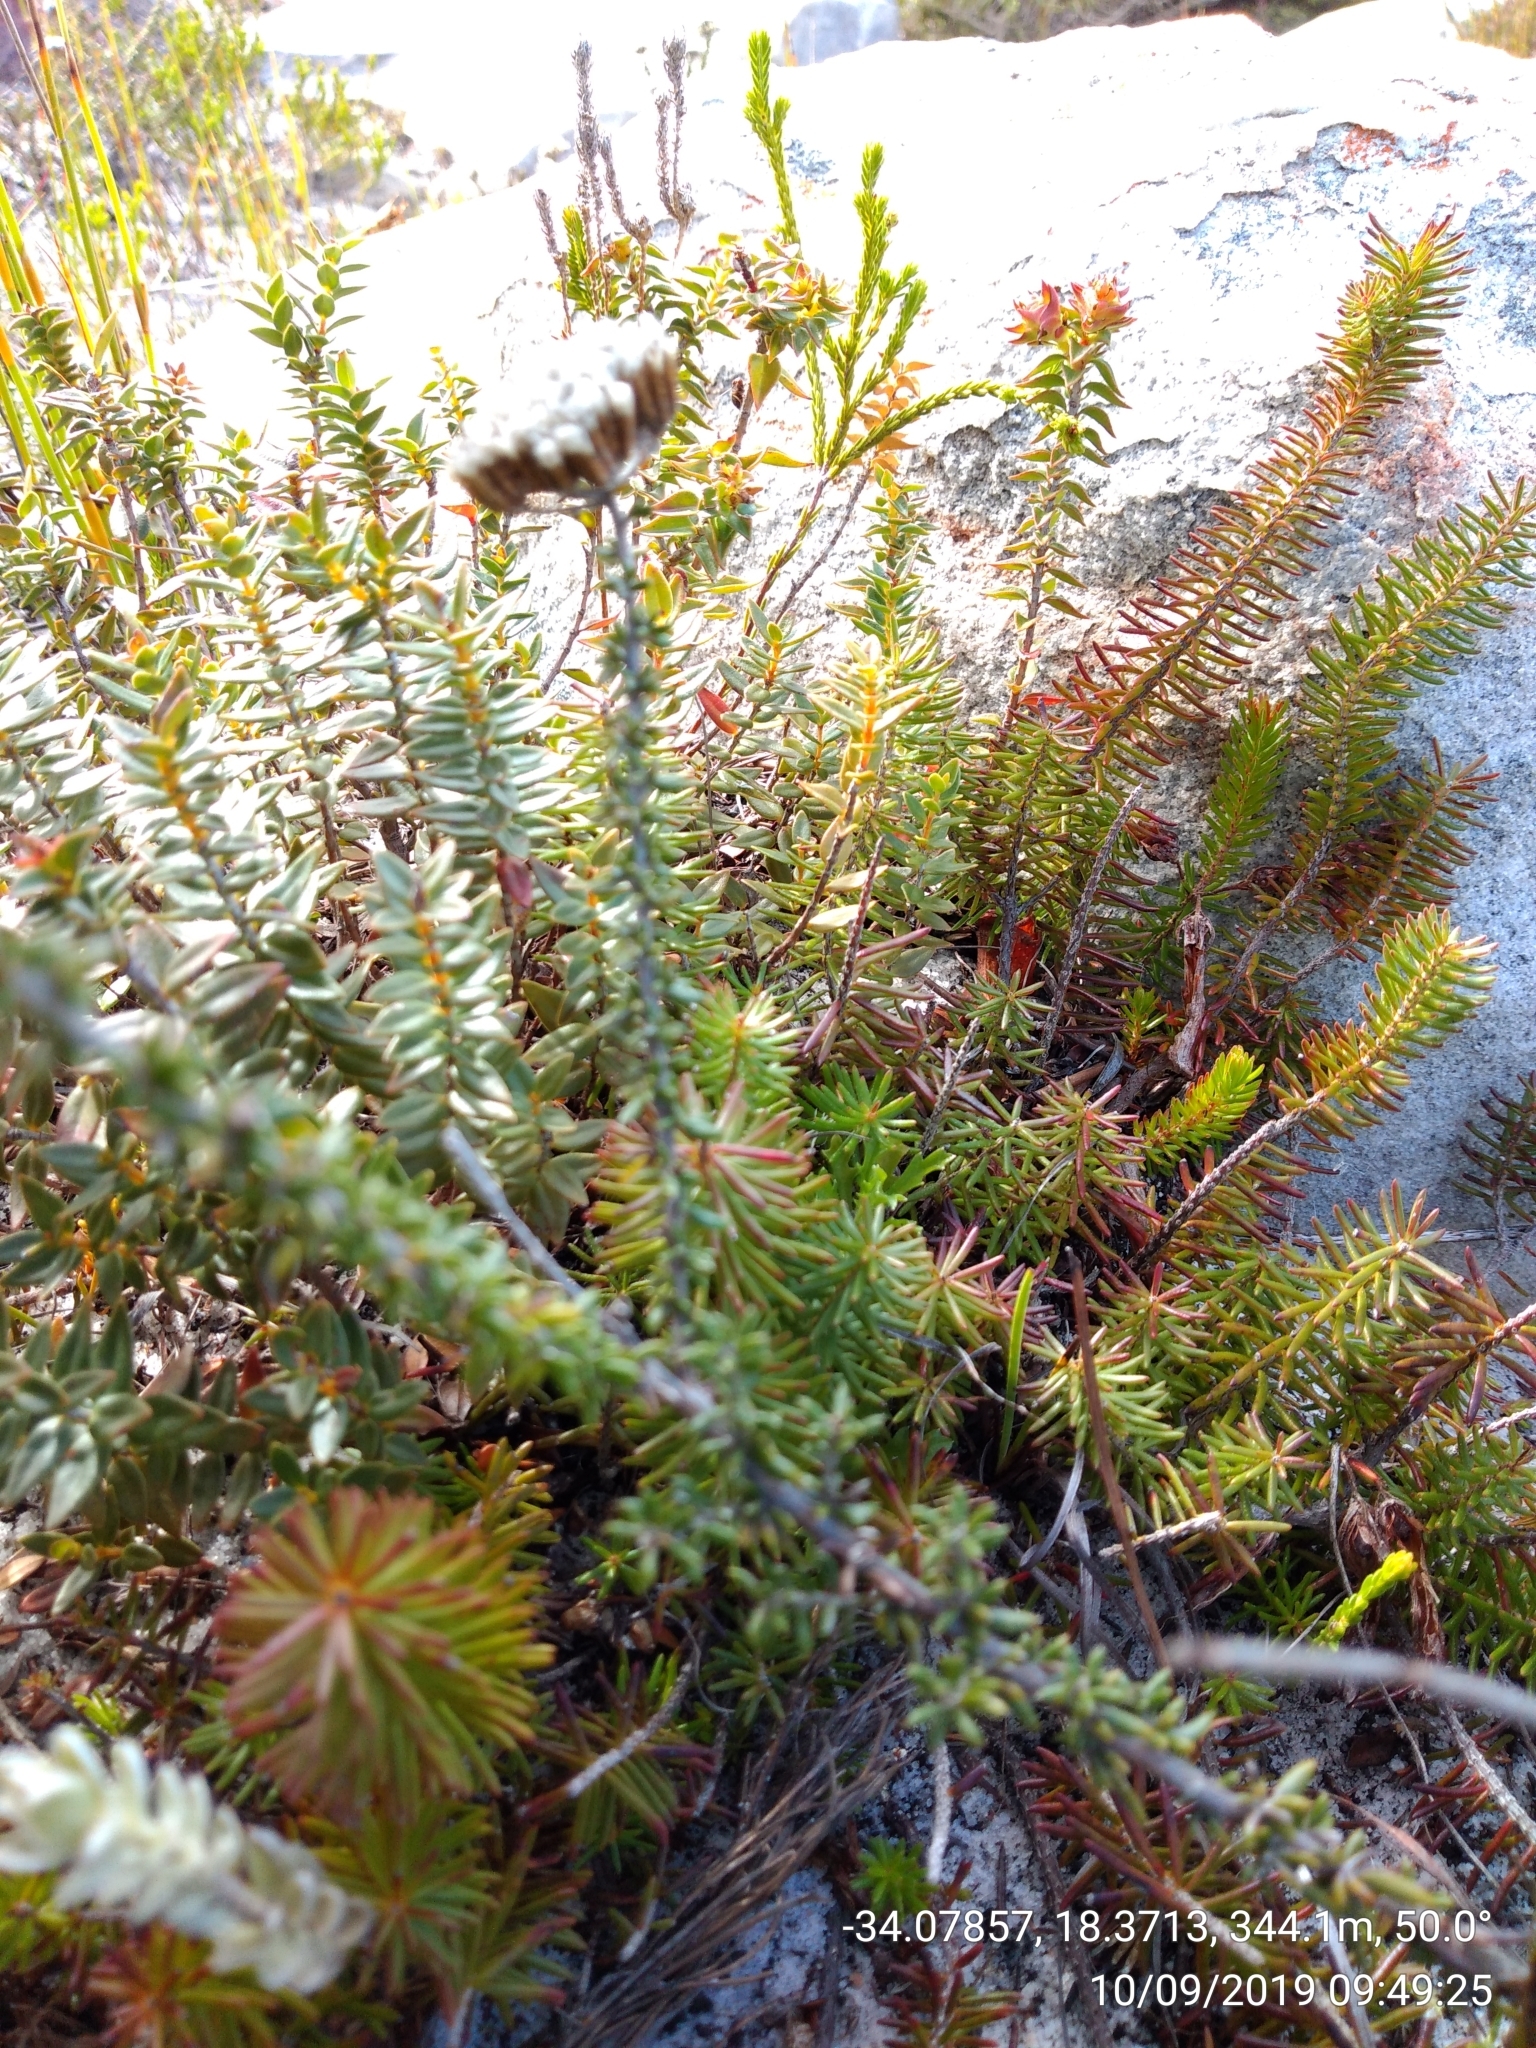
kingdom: Plantae
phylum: Tracheophyta
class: Magnoliopsida
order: Ericales
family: Ericaceae
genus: Erica
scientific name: Erica nevillei
